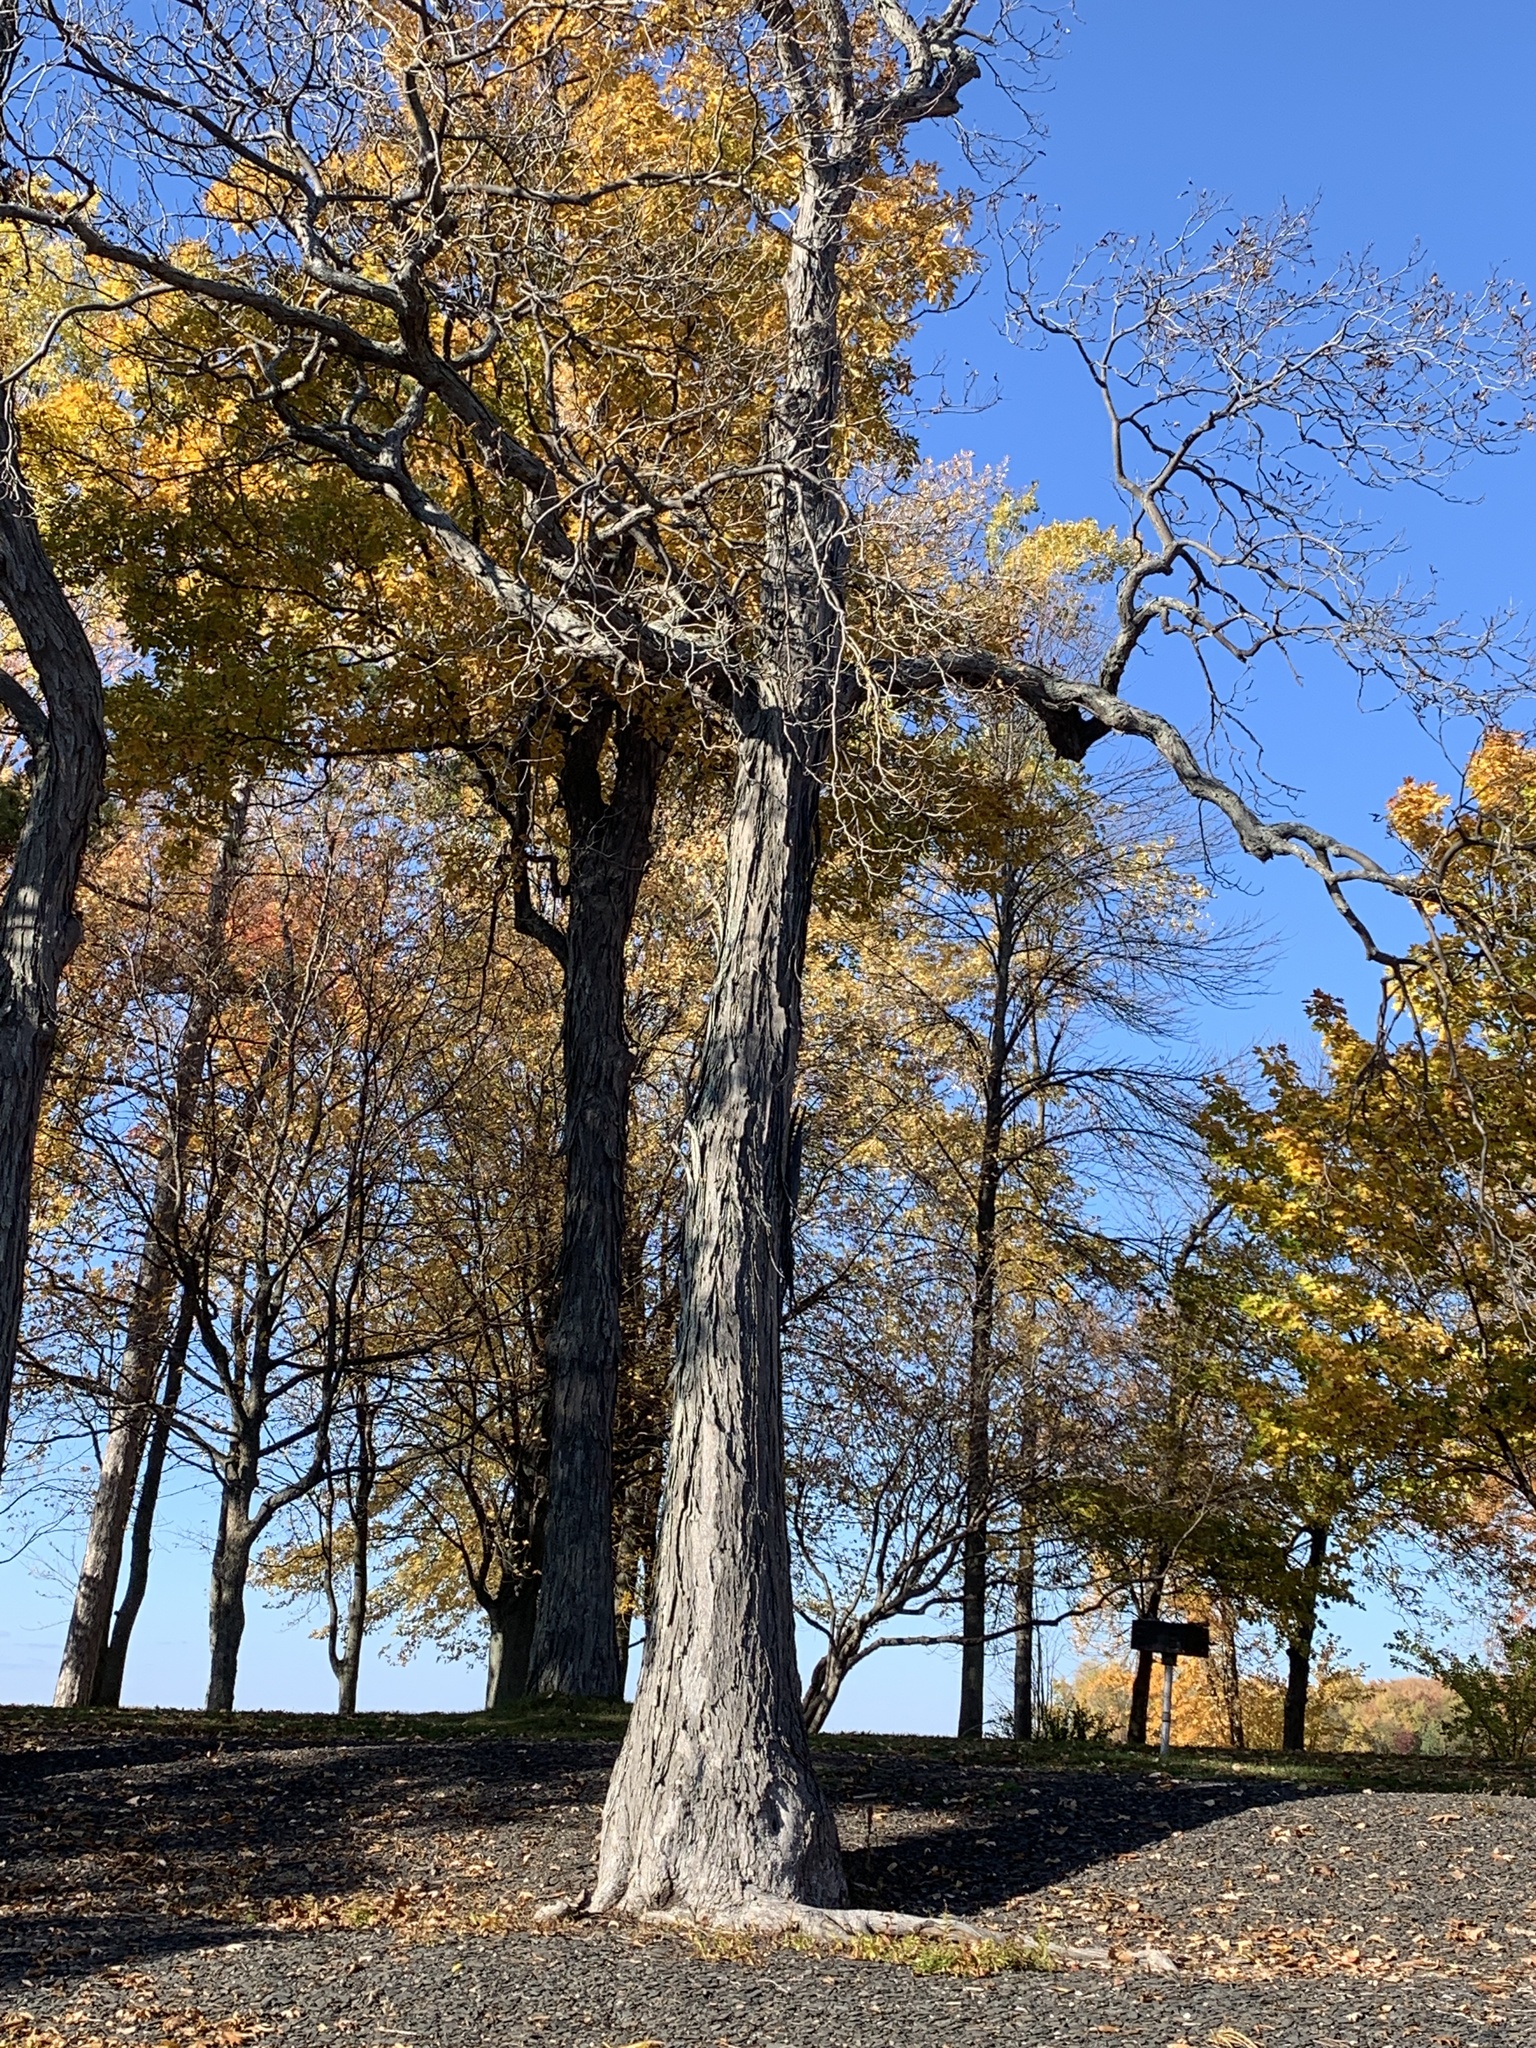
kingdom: Plantae
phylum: Tracheophyta
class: Magnoliopsida
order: Fagales
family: Juglandaceae
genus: Carya
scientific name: Carya ovata
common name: Shagbark hickory
